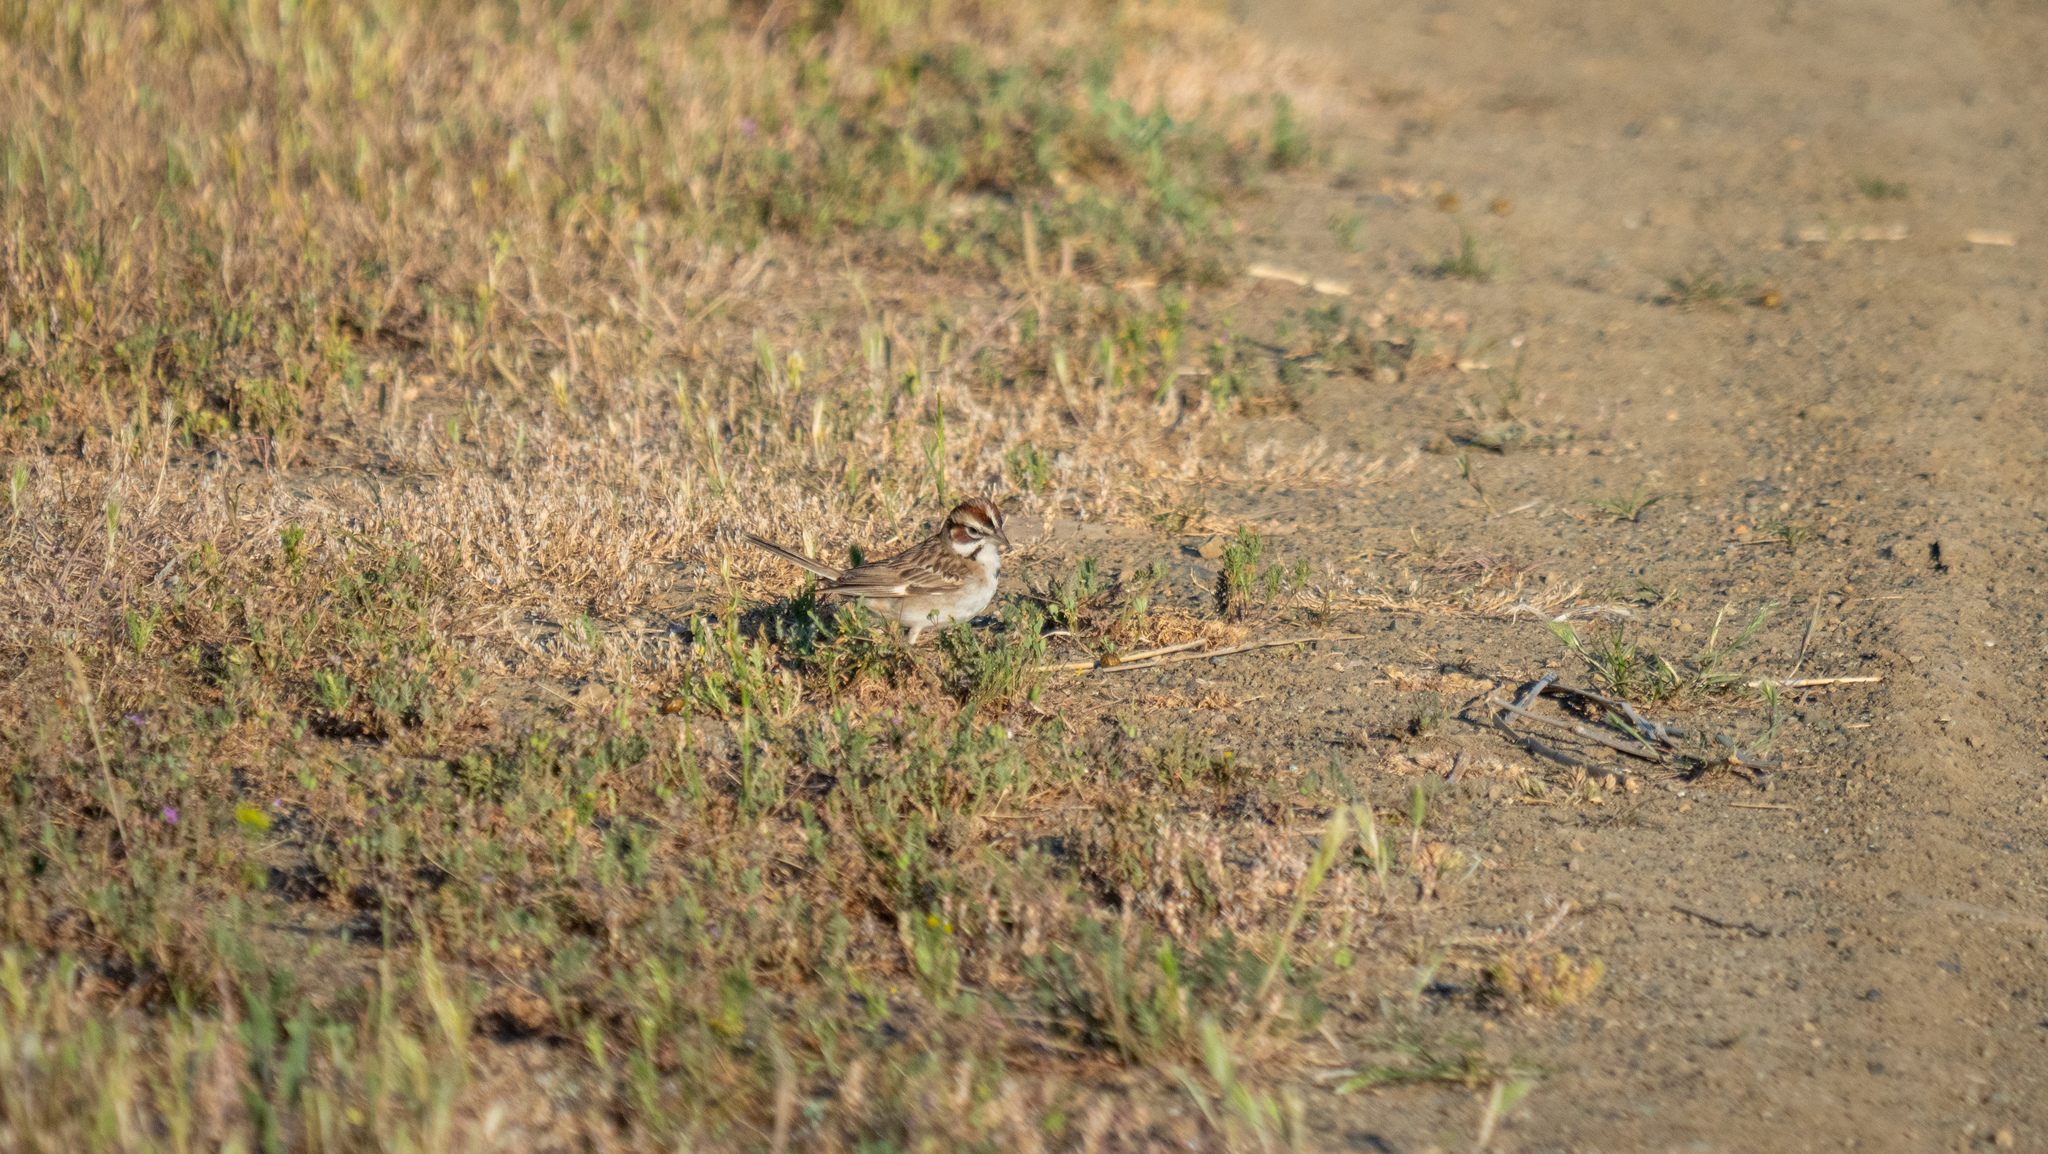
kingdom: Animalia
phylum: Chordata
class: Aves
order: Passeriformes
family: Passerellidae
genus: Chondestes
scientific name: Chondestes grammacus
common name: Lark sparrow
